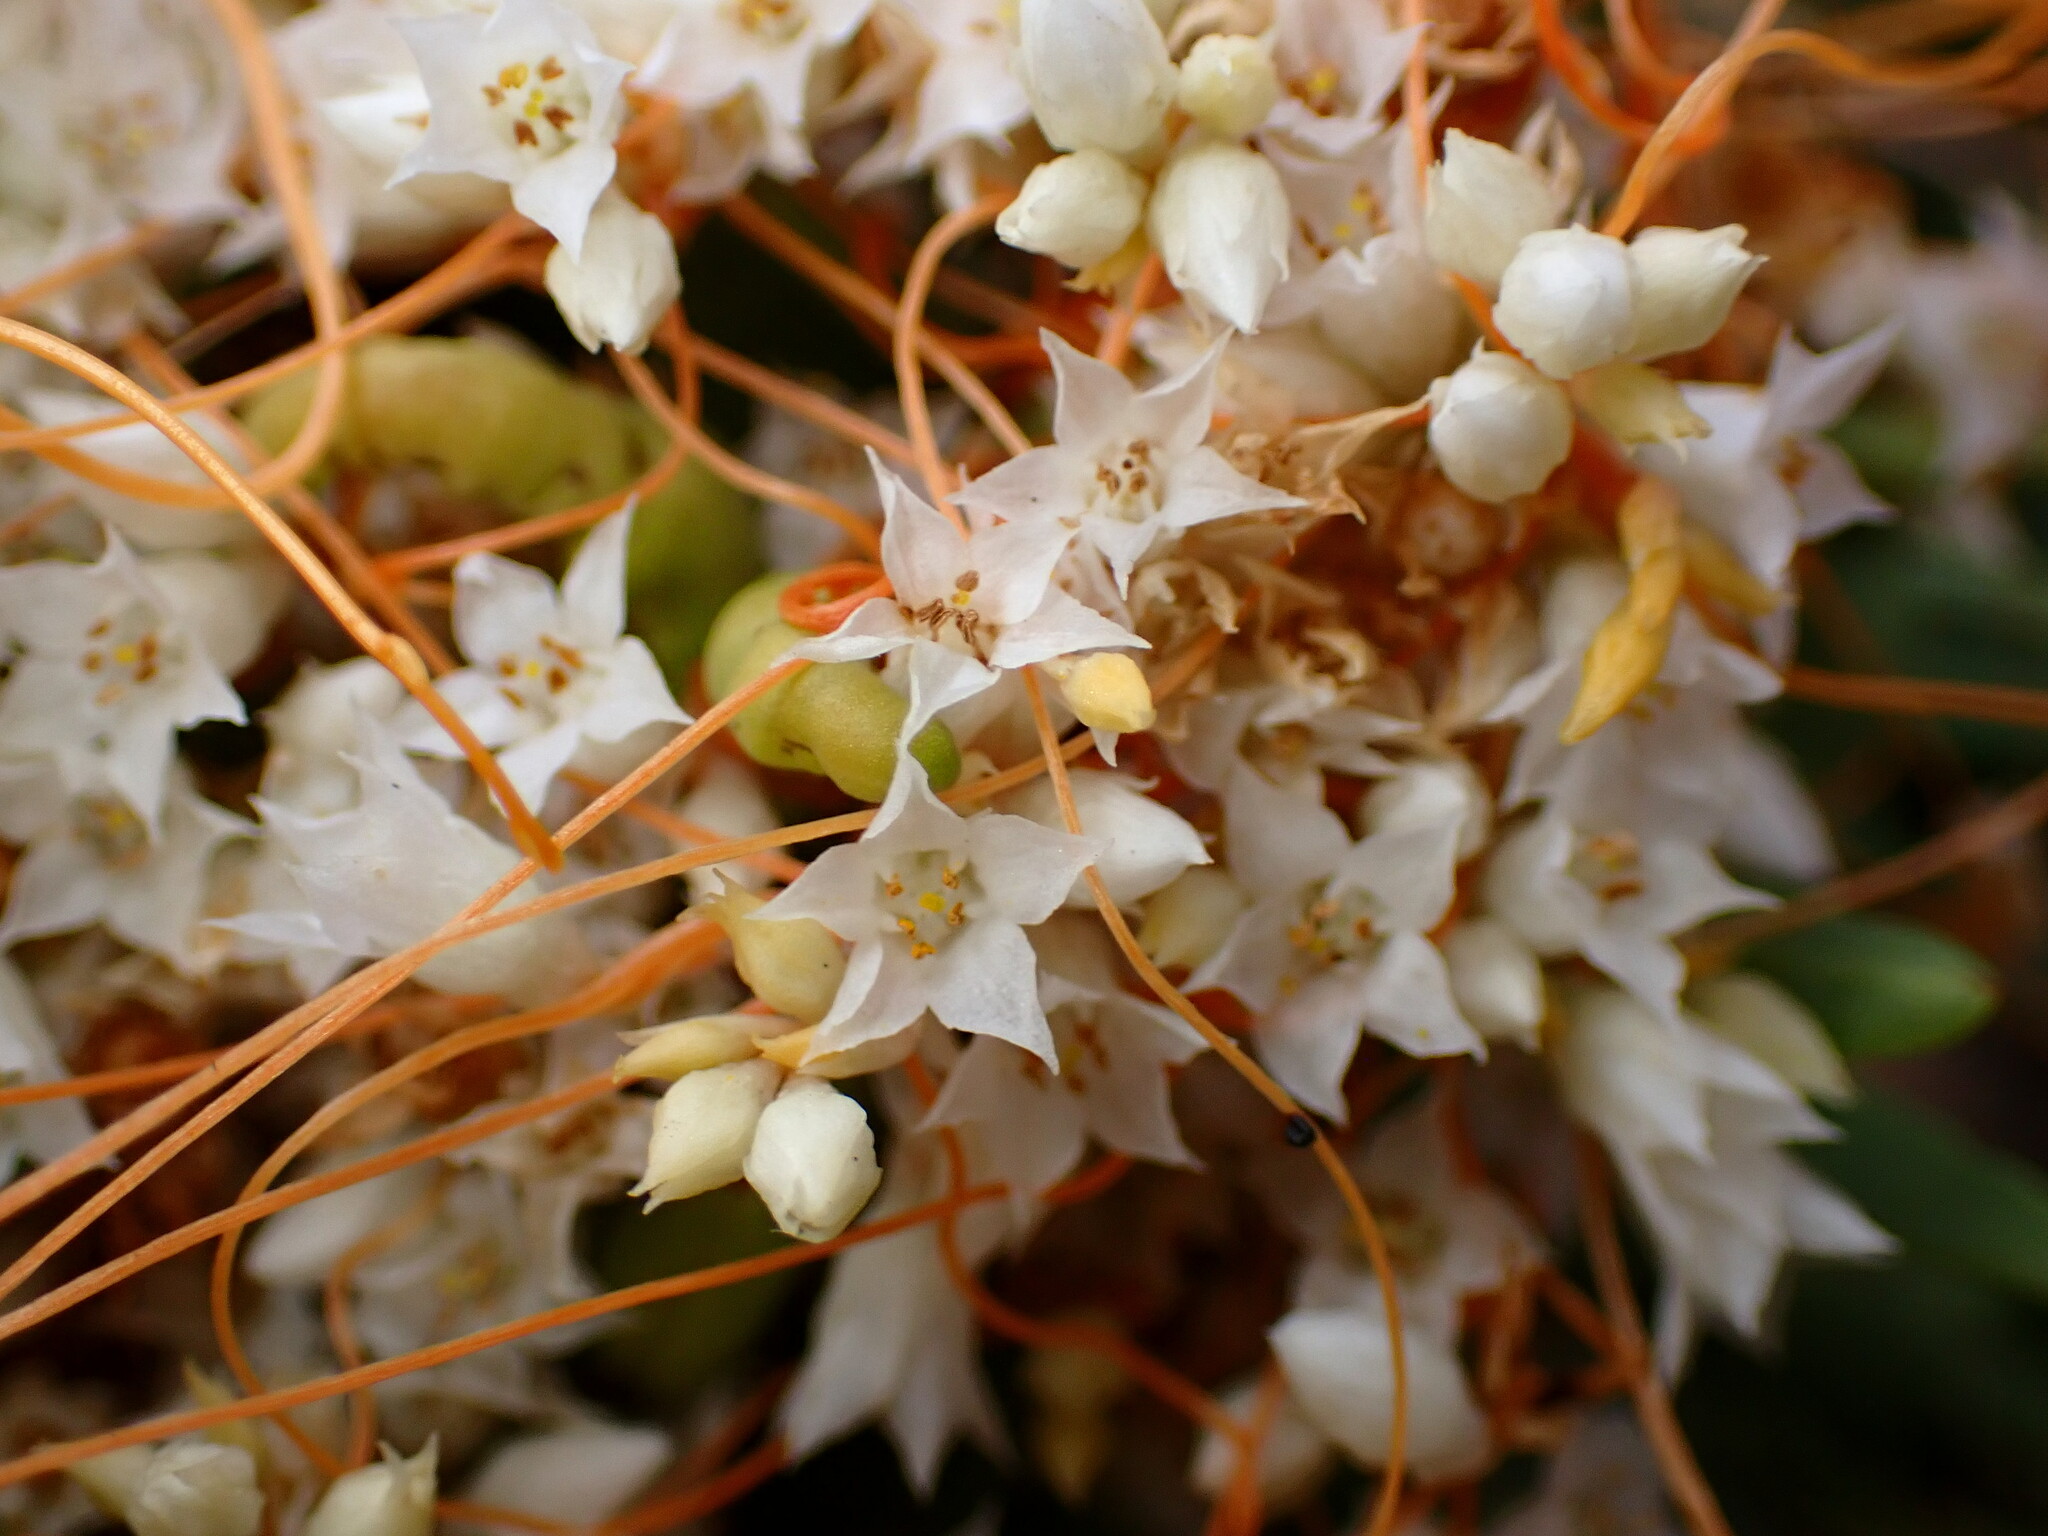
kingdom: Plantae
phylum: Tracheophyta
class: Magnoliopsida
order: Solanales
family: Convolvulaceae
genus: Cuscuta
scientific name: Cuscuta pacifica
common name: Large saltmarsh dodder
